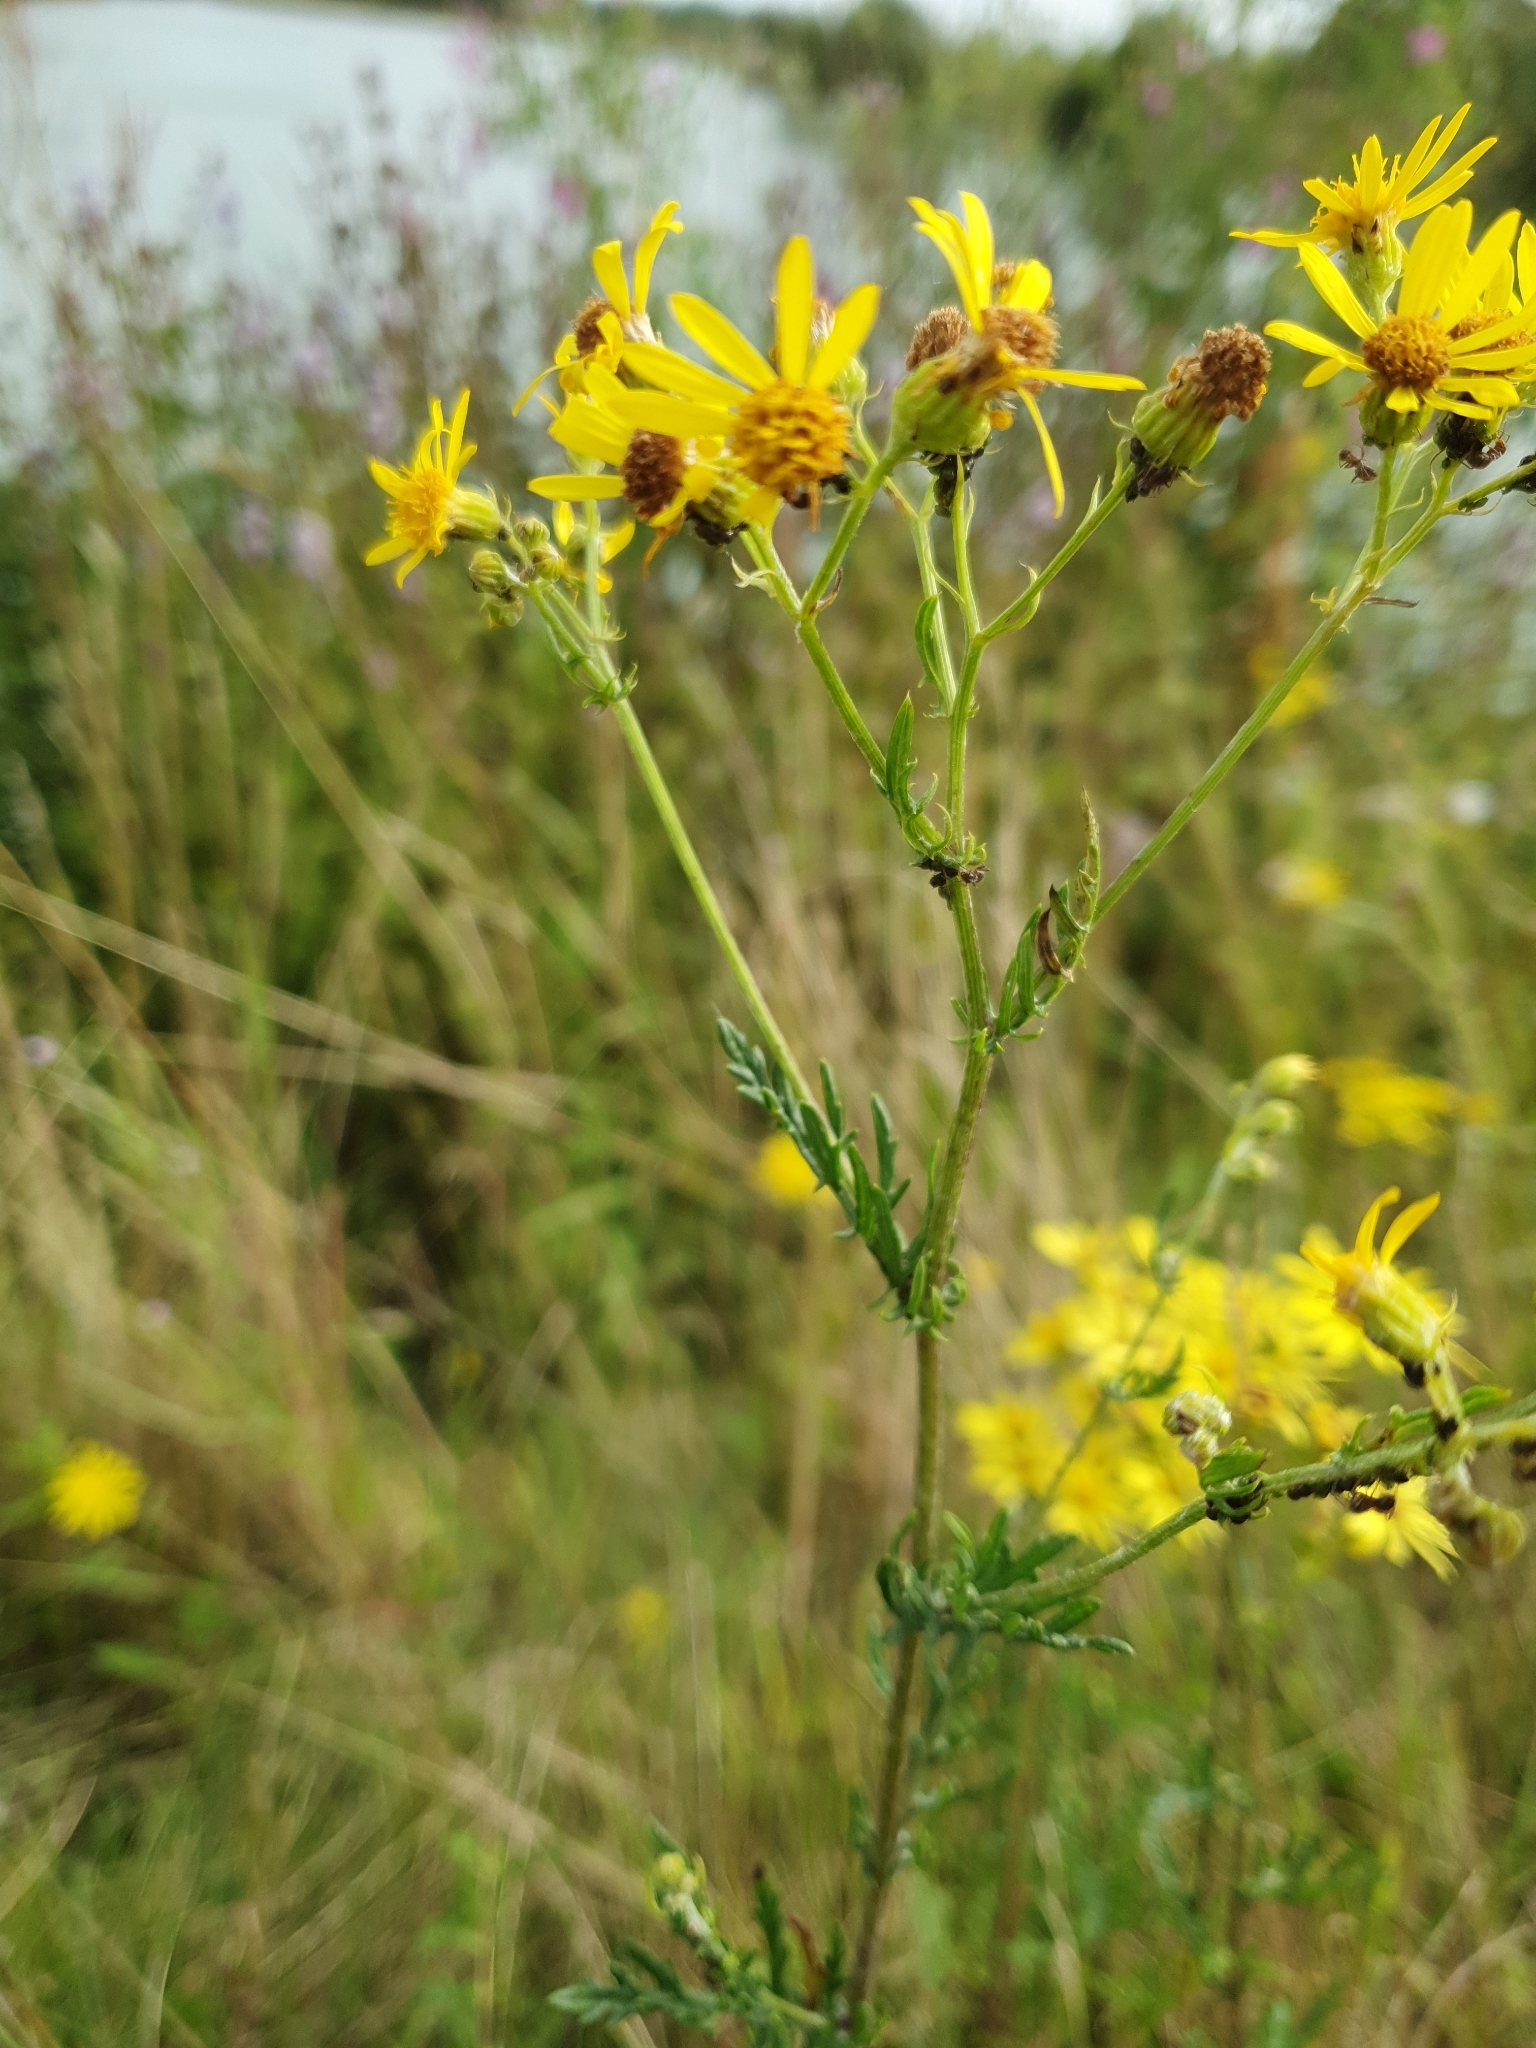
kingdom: Plantae
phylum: Tracheophyta
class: Magnoliopsida
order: Asterales
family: Asteraceae
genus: Jacobaea
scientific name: Jacobaea erucifolia
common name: Hoary ragwort
